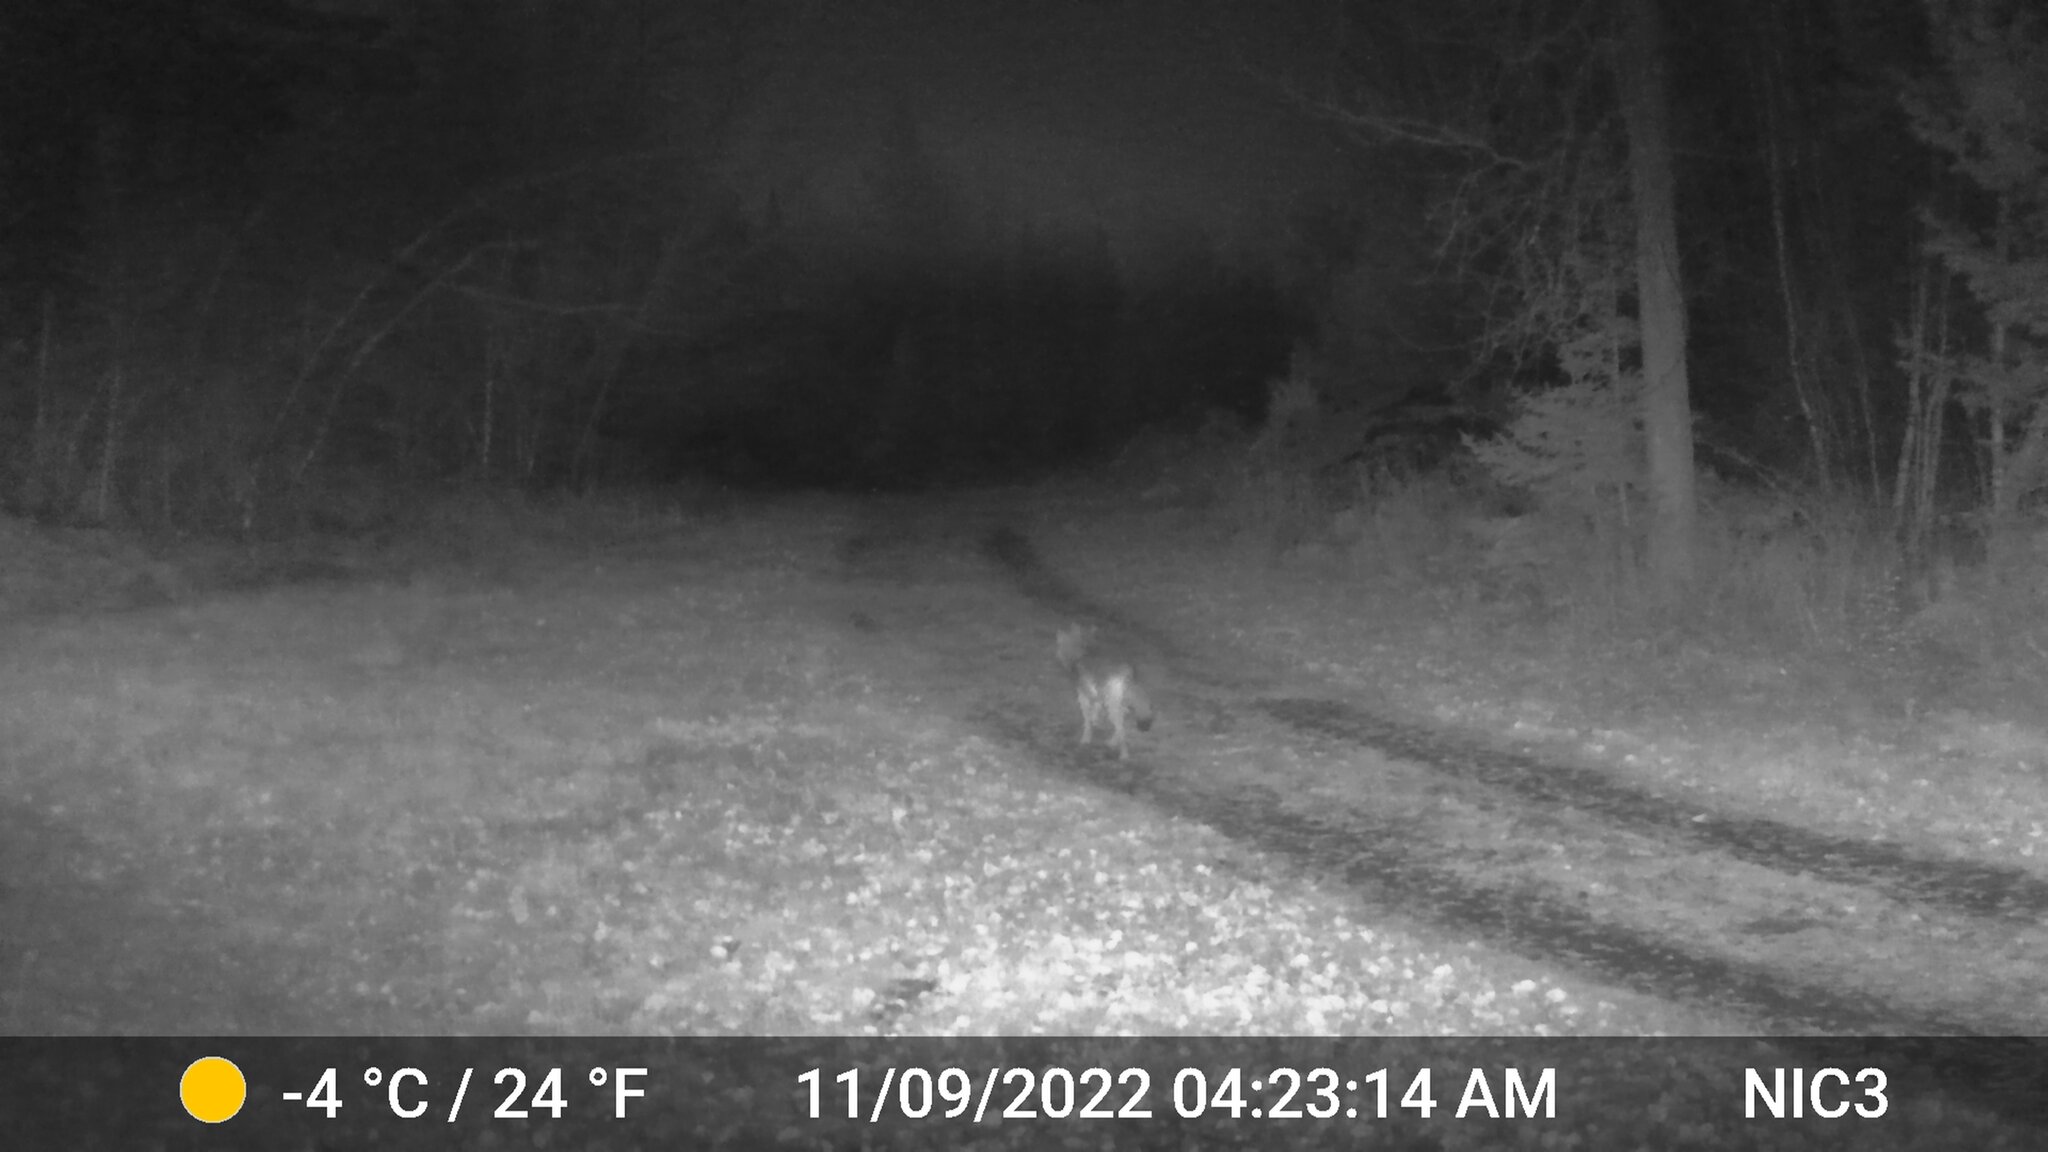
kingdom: Animalia
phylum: Chordata
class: Mammalia
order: Carnivora
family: Canidae
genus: Canis
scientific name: Canis latrans
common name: Coyote
